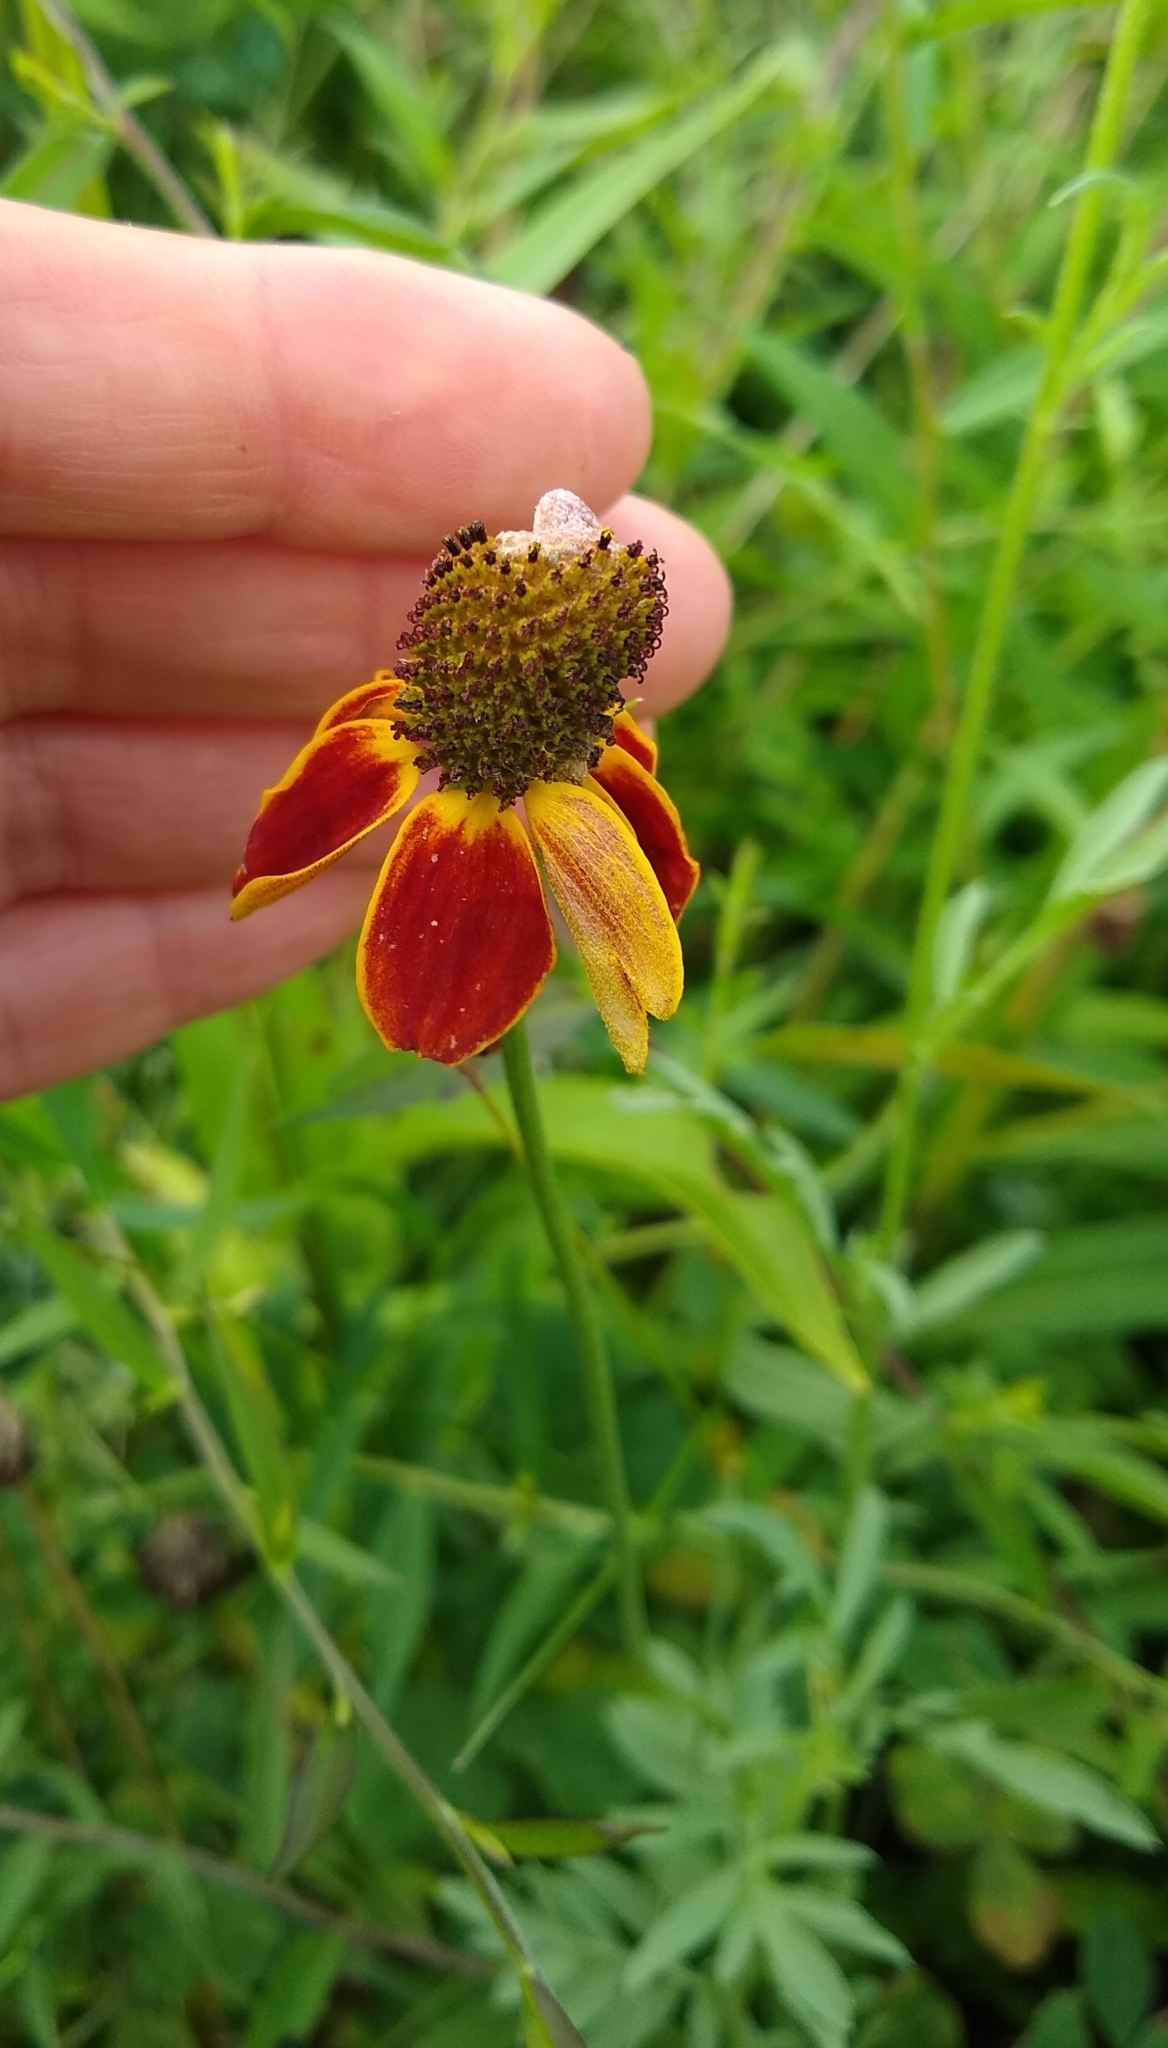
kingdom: Plantae
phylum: Tracheophyta
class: Magnoliopsida
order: Asterales
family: Asteraceae
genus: Ratibida
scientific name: Ratibida columnifera
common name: Prairie coneflower
